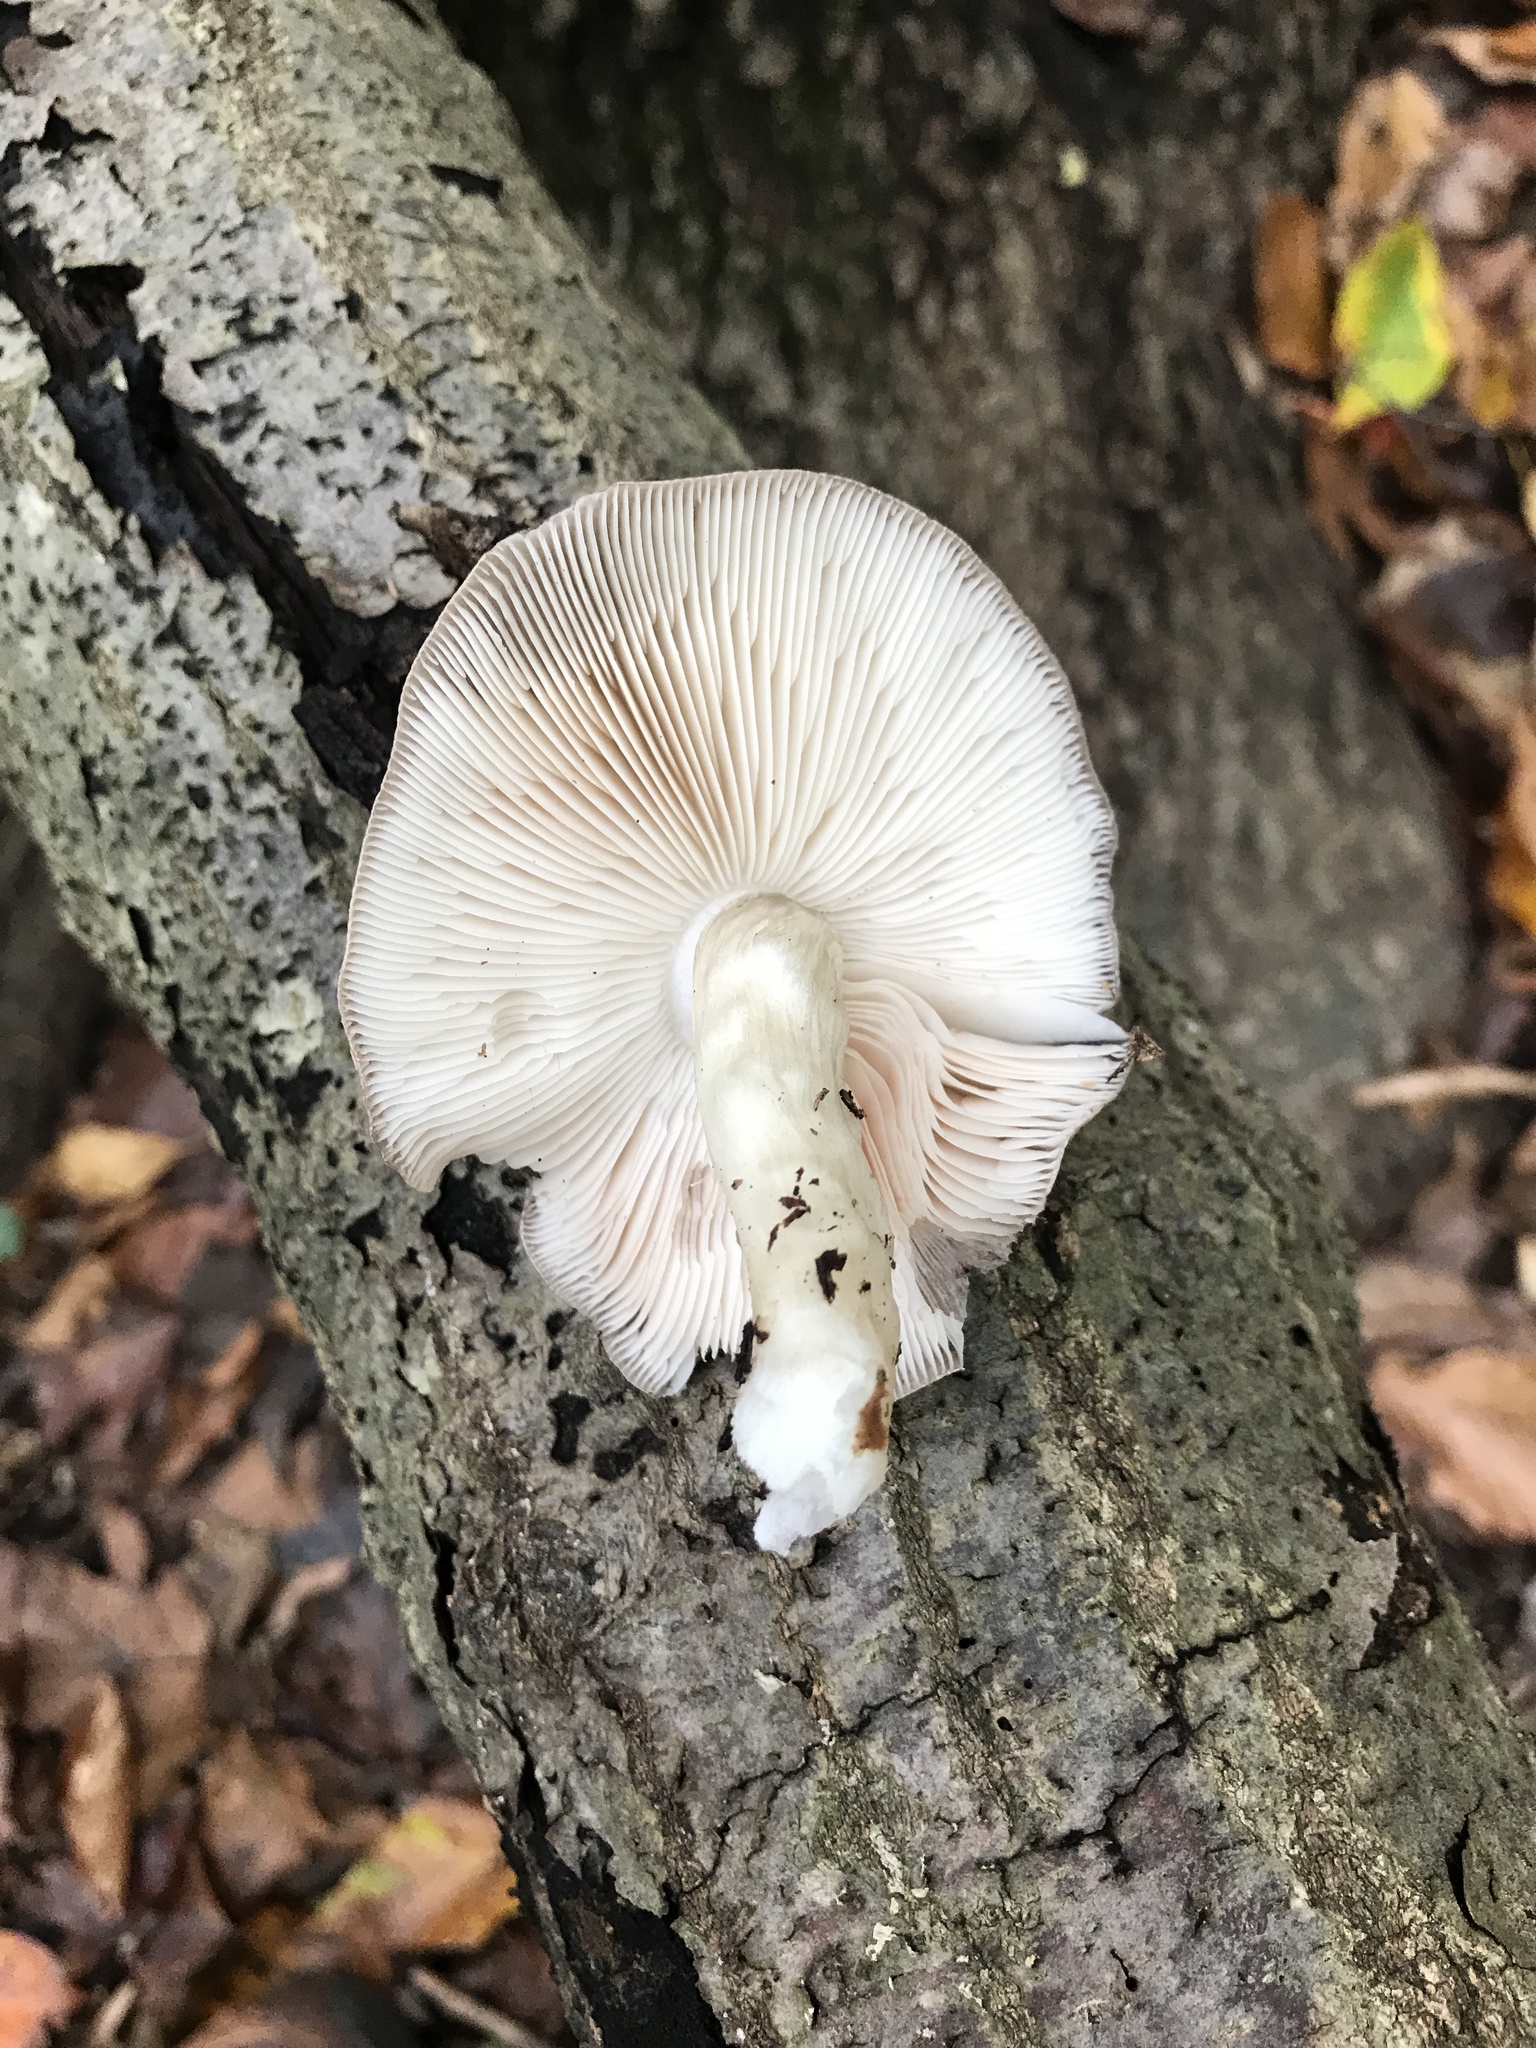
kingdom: Fungi
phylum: Basidiomycota
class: Agaricomycetes
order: Agaricales
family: Pluteaceae
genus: Pluteus
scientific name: Pluteus cervinus
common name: Deer shield
